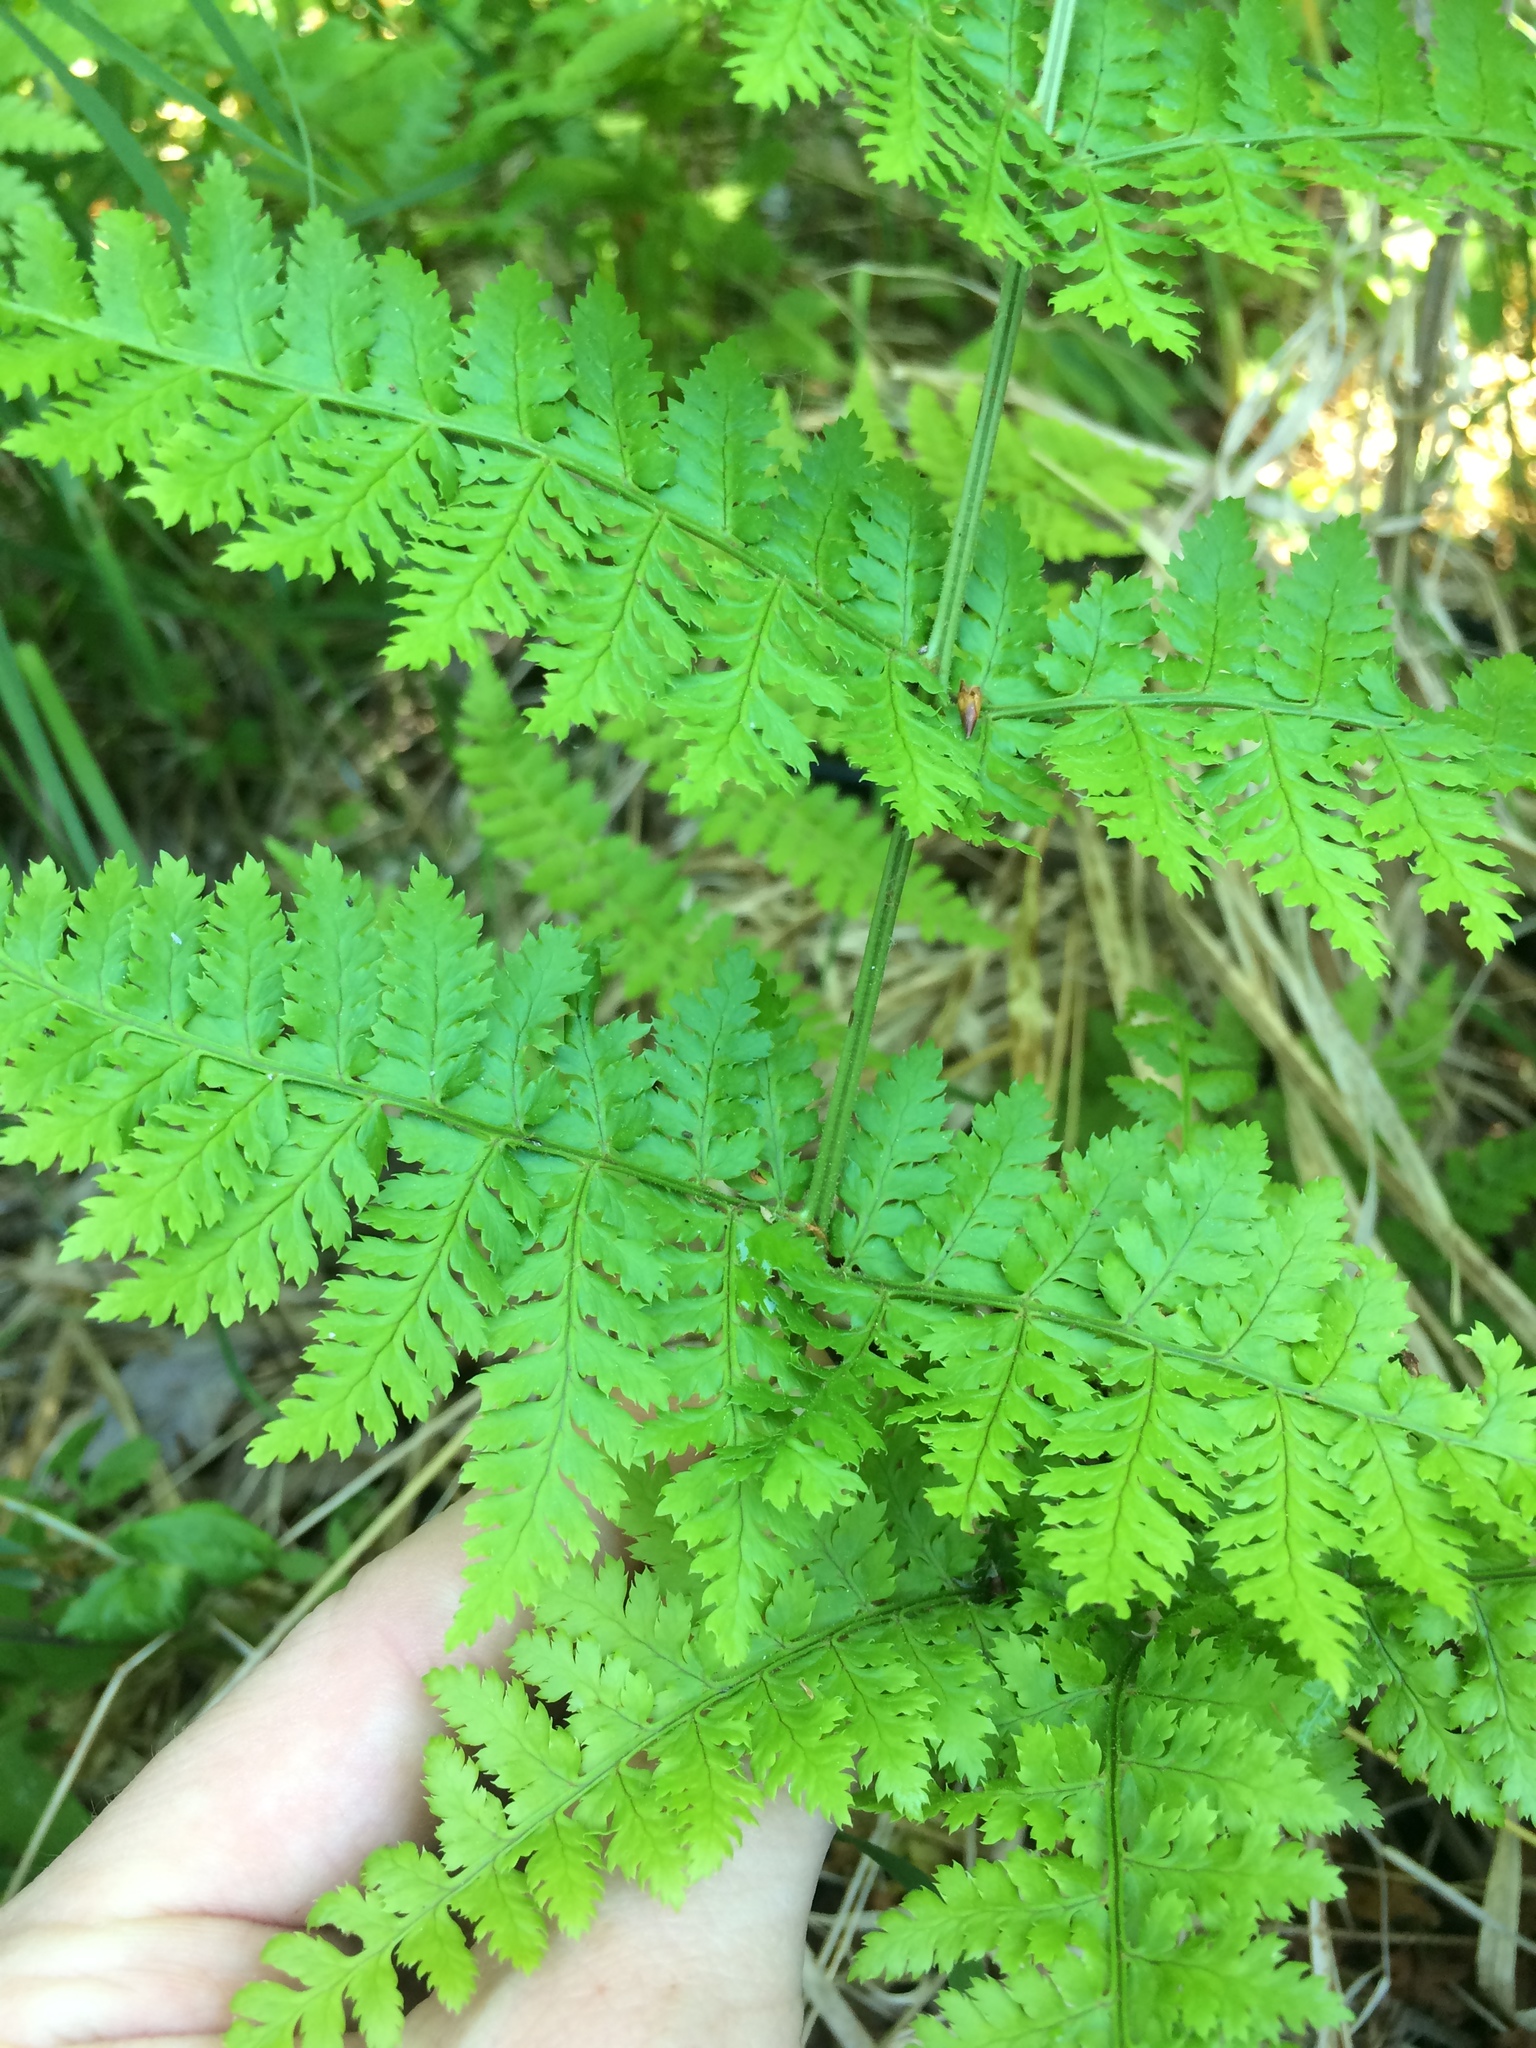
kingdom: Plantae
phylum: Tracheophyta
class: Polypodiopsida
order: Polypodiales
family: Dryopteridaceae
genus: Dryopteris
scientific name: Dryopteris intermedia
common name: Evergreen wood fern
